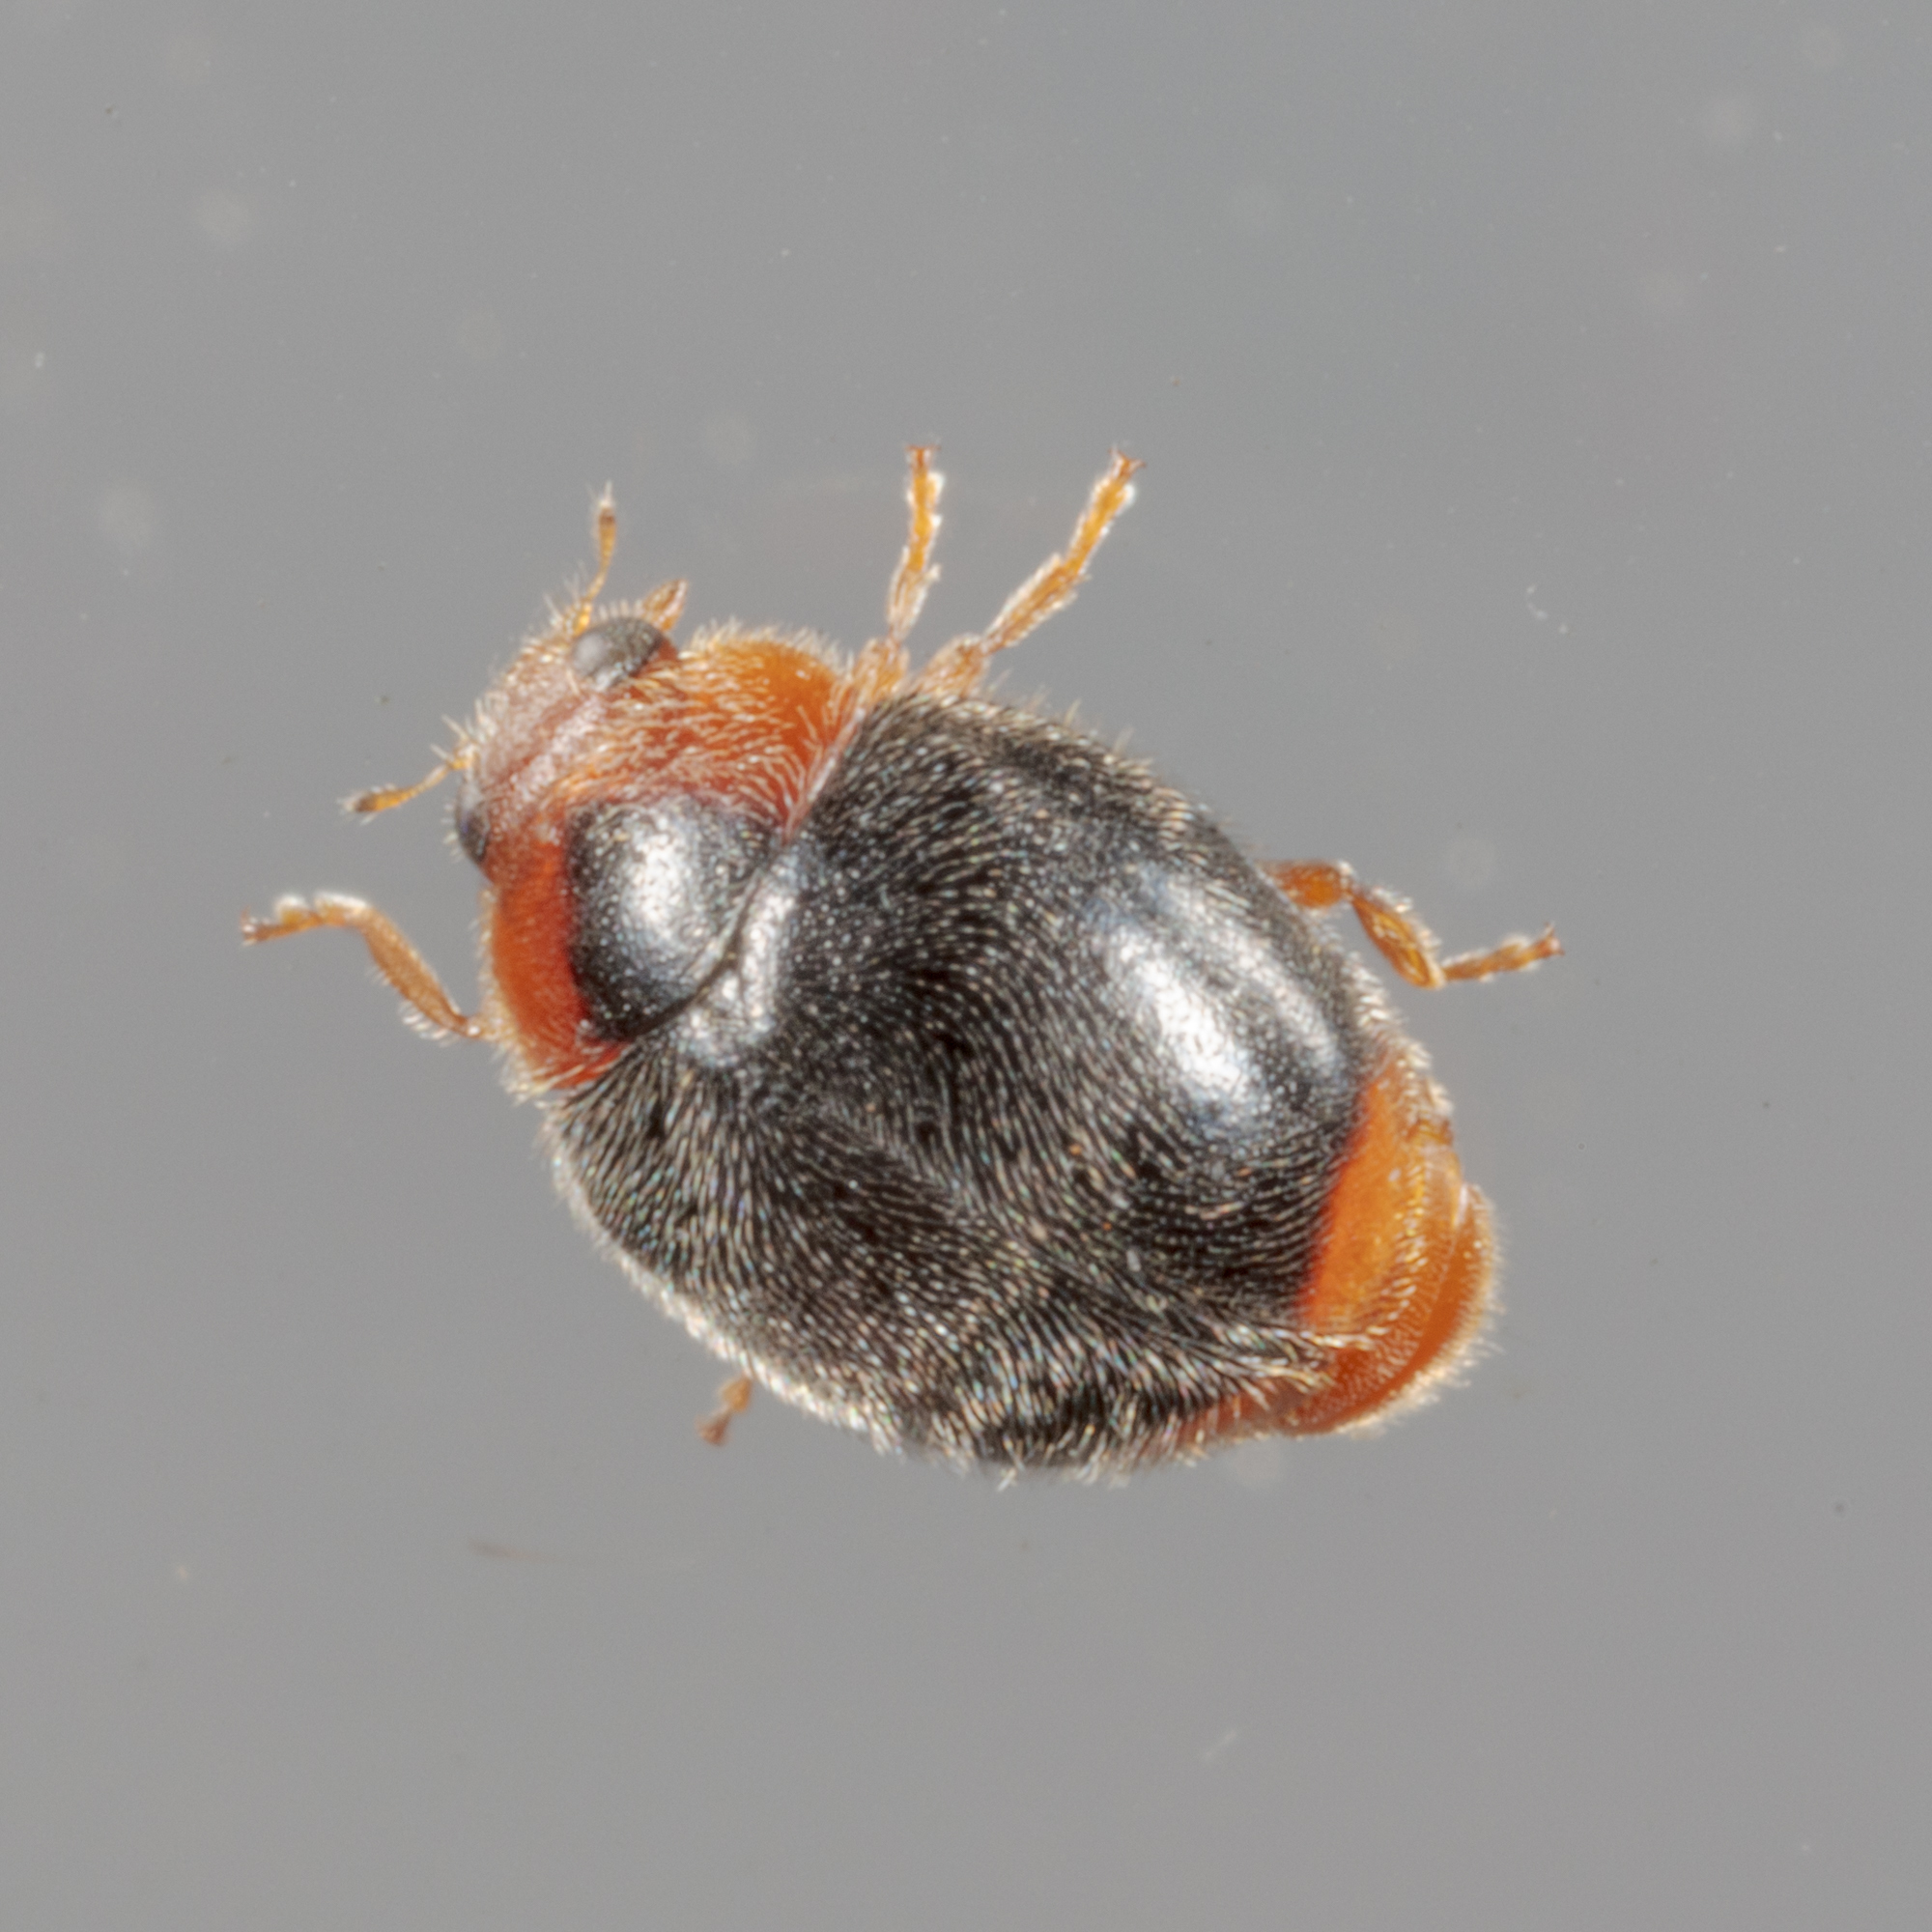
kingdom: Animalia
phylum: Arthropoda
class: Insecta
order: Coleoptera
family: Coccinellidae
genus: Scymnus
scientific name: Scymnus louisianae
